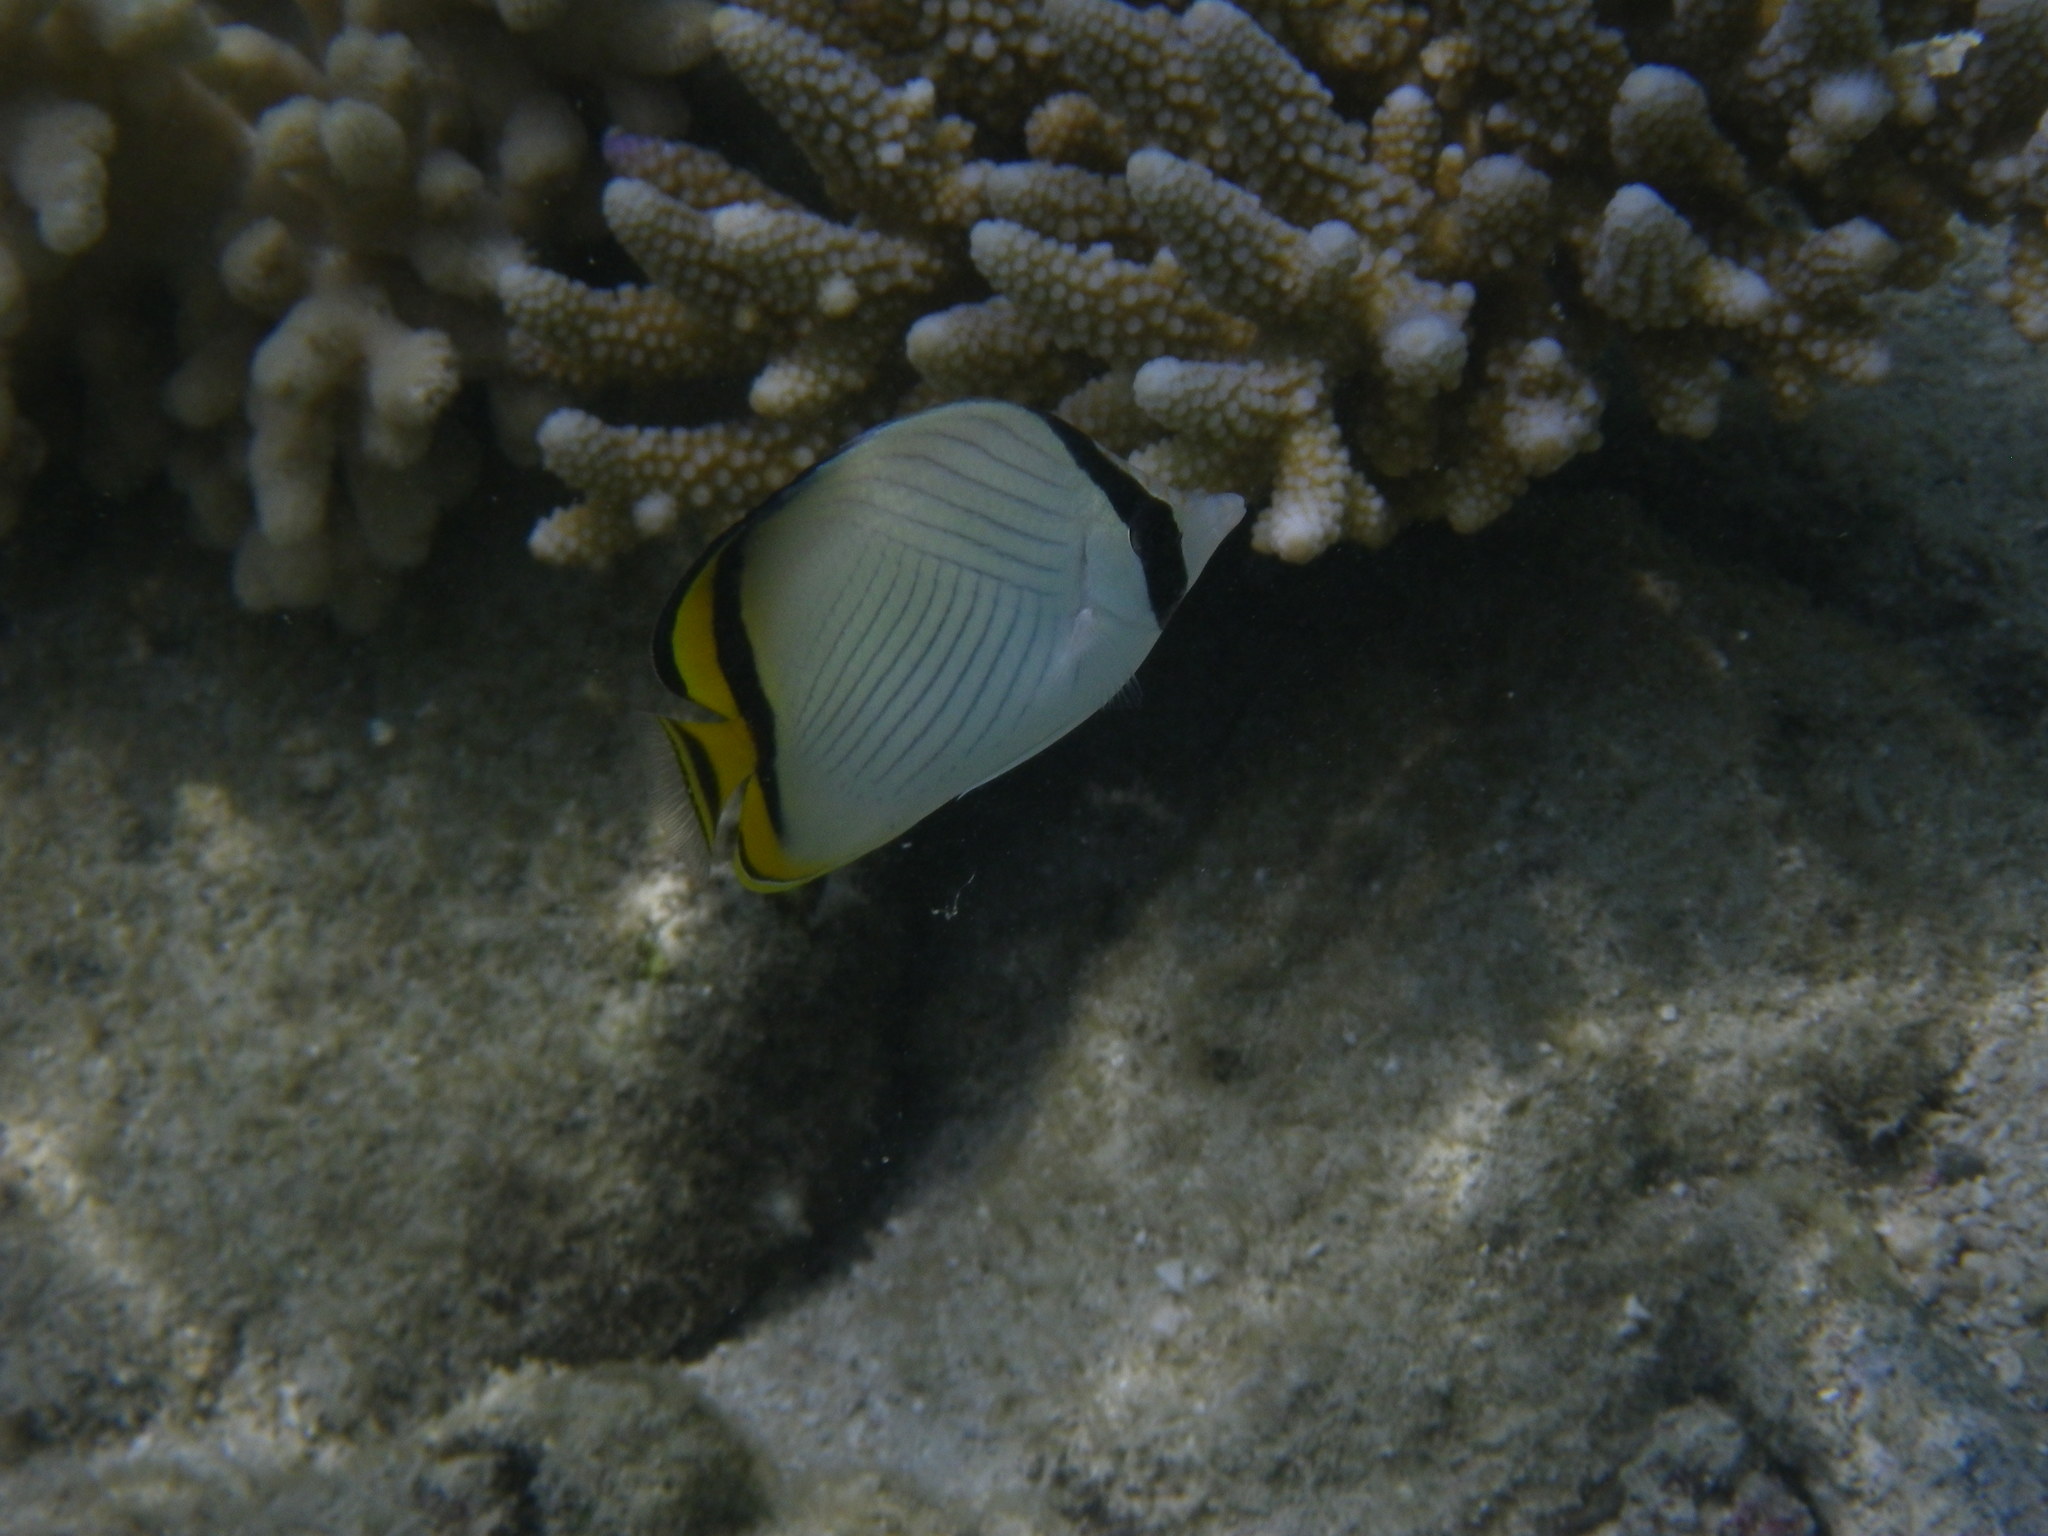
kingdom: Animalia
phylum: Chordata
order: Perciformes
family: Chaetodontidae
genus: Chaetodon
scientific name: Chaetodon vagabundus
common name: Vagabond butterflyfish
